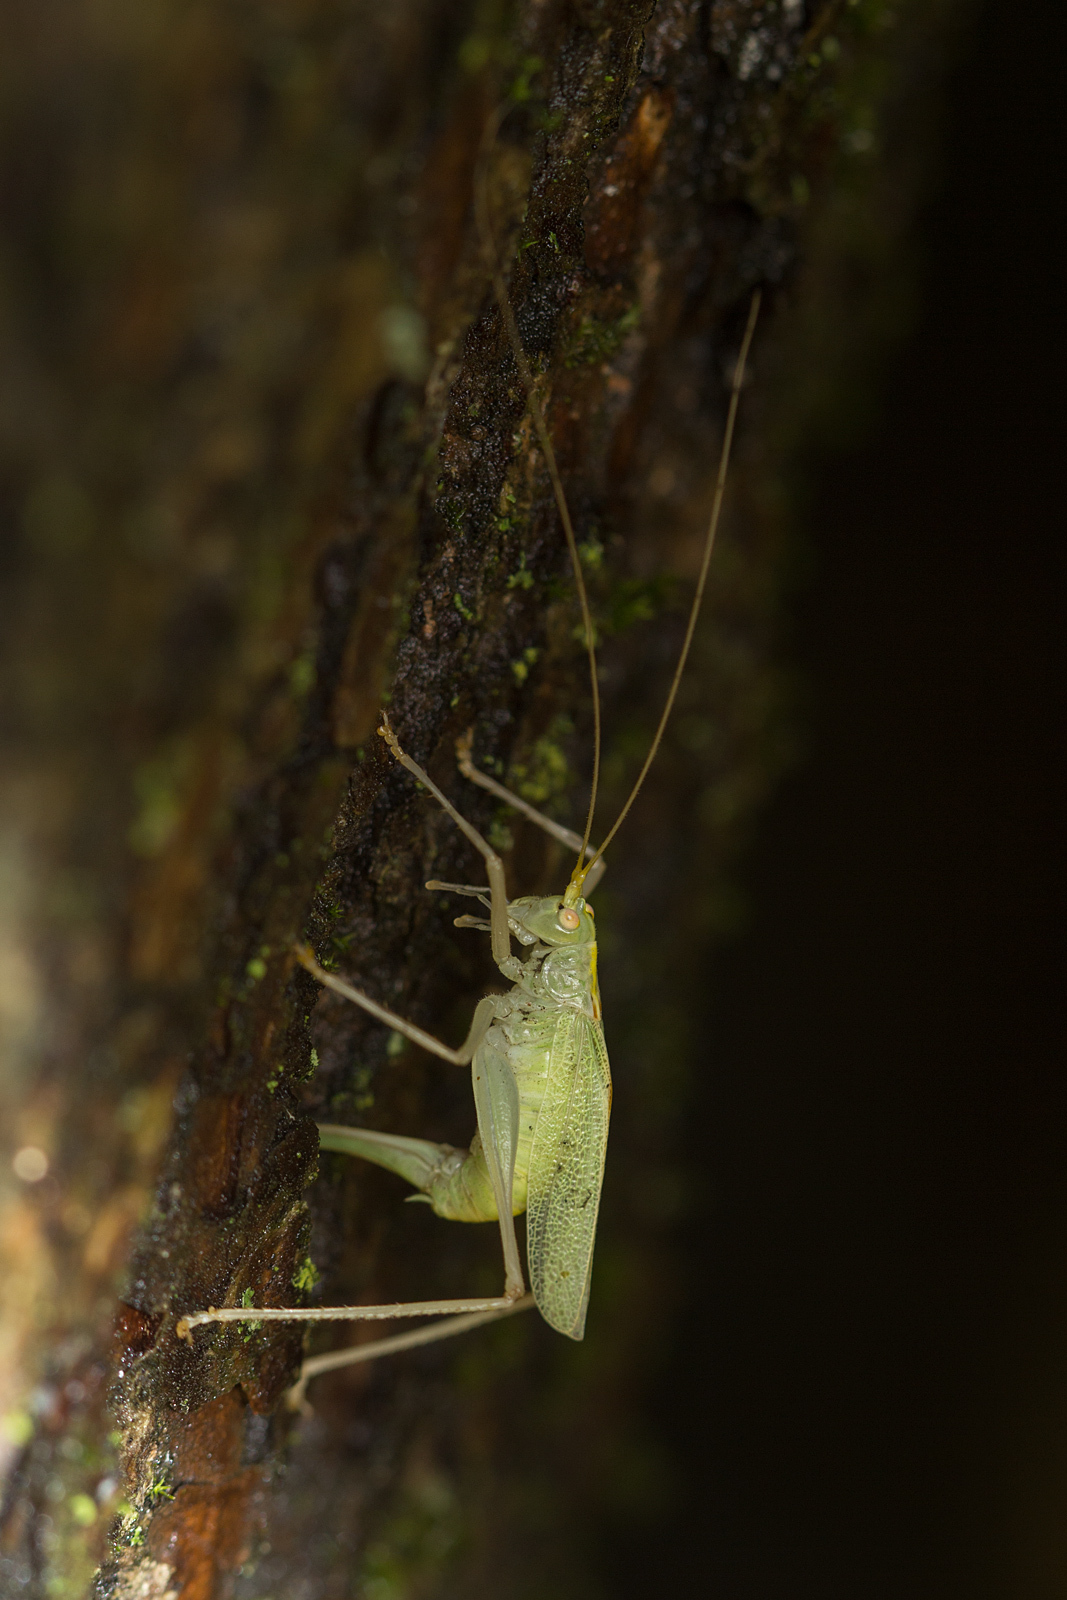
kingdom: Animalia
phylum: Arthropoda
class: Insecta
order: Orthoptera
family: Tettigoniidae
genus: Meconema
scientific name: Meconema thalassinum
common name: Oak bush-cricket
